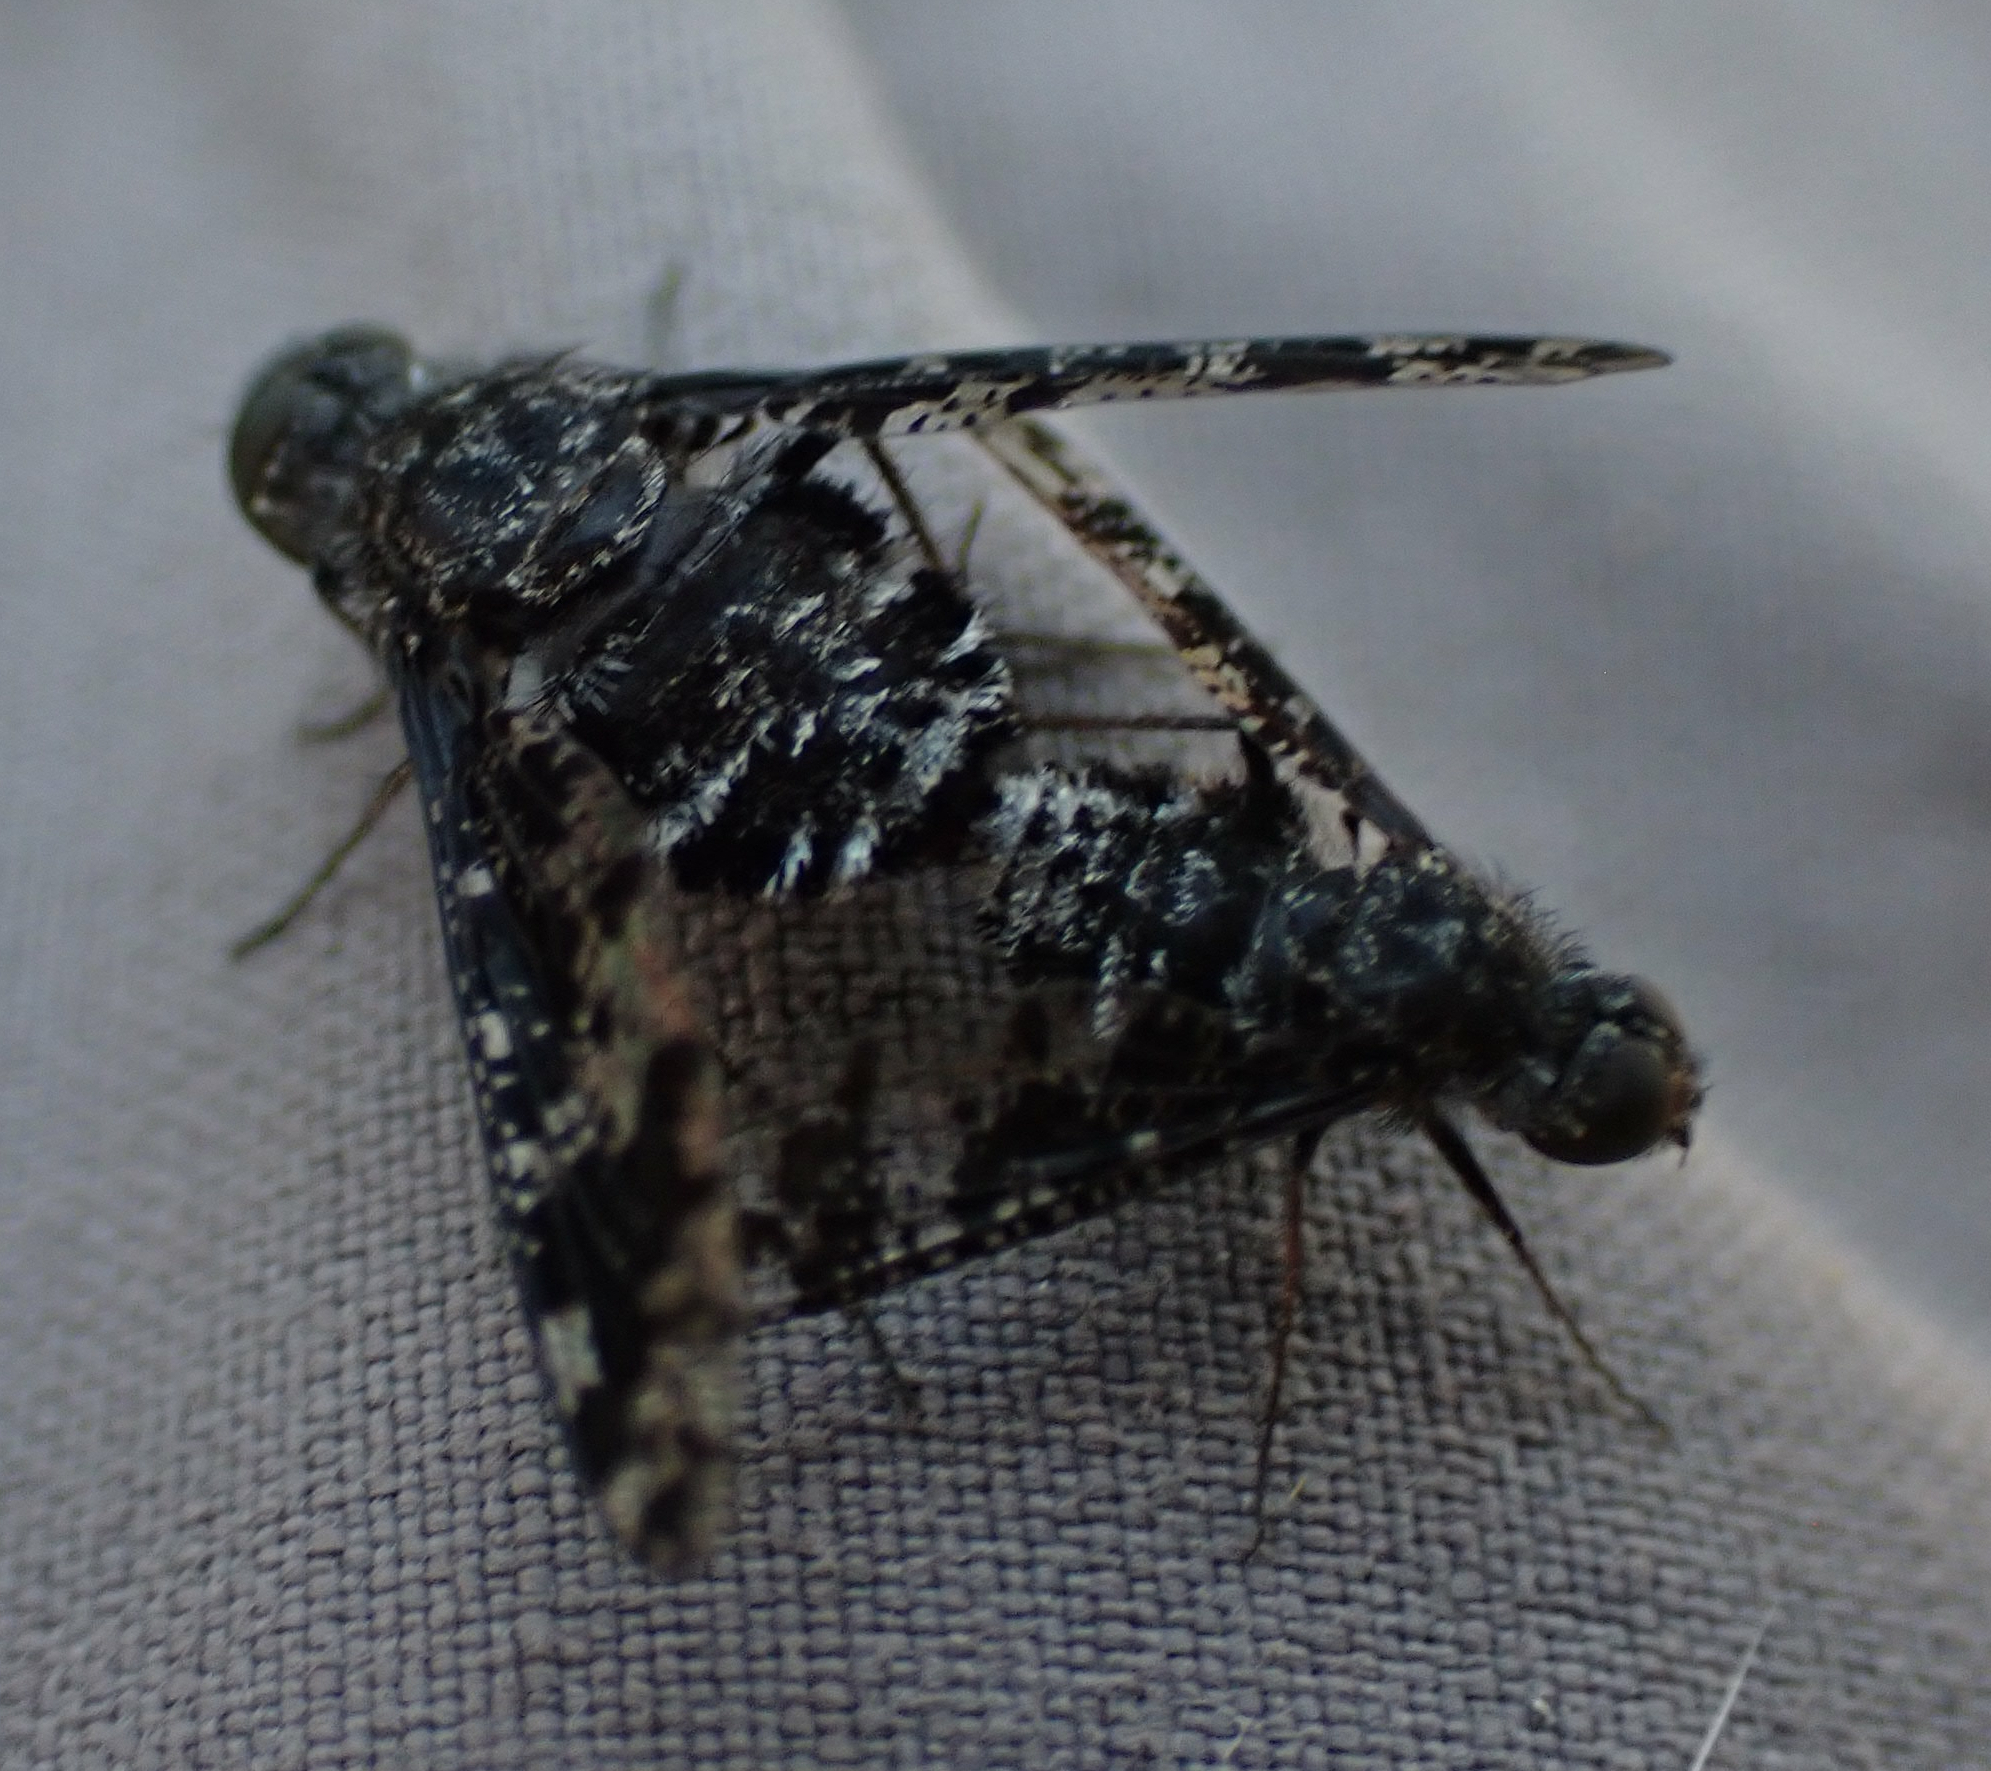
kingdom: Animalia
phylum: Arthropoda
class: Insecta
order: Diptera
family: Bombyliidae
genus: Anthrax
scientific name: Anthrax irroratus
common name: Spotted bee fly
